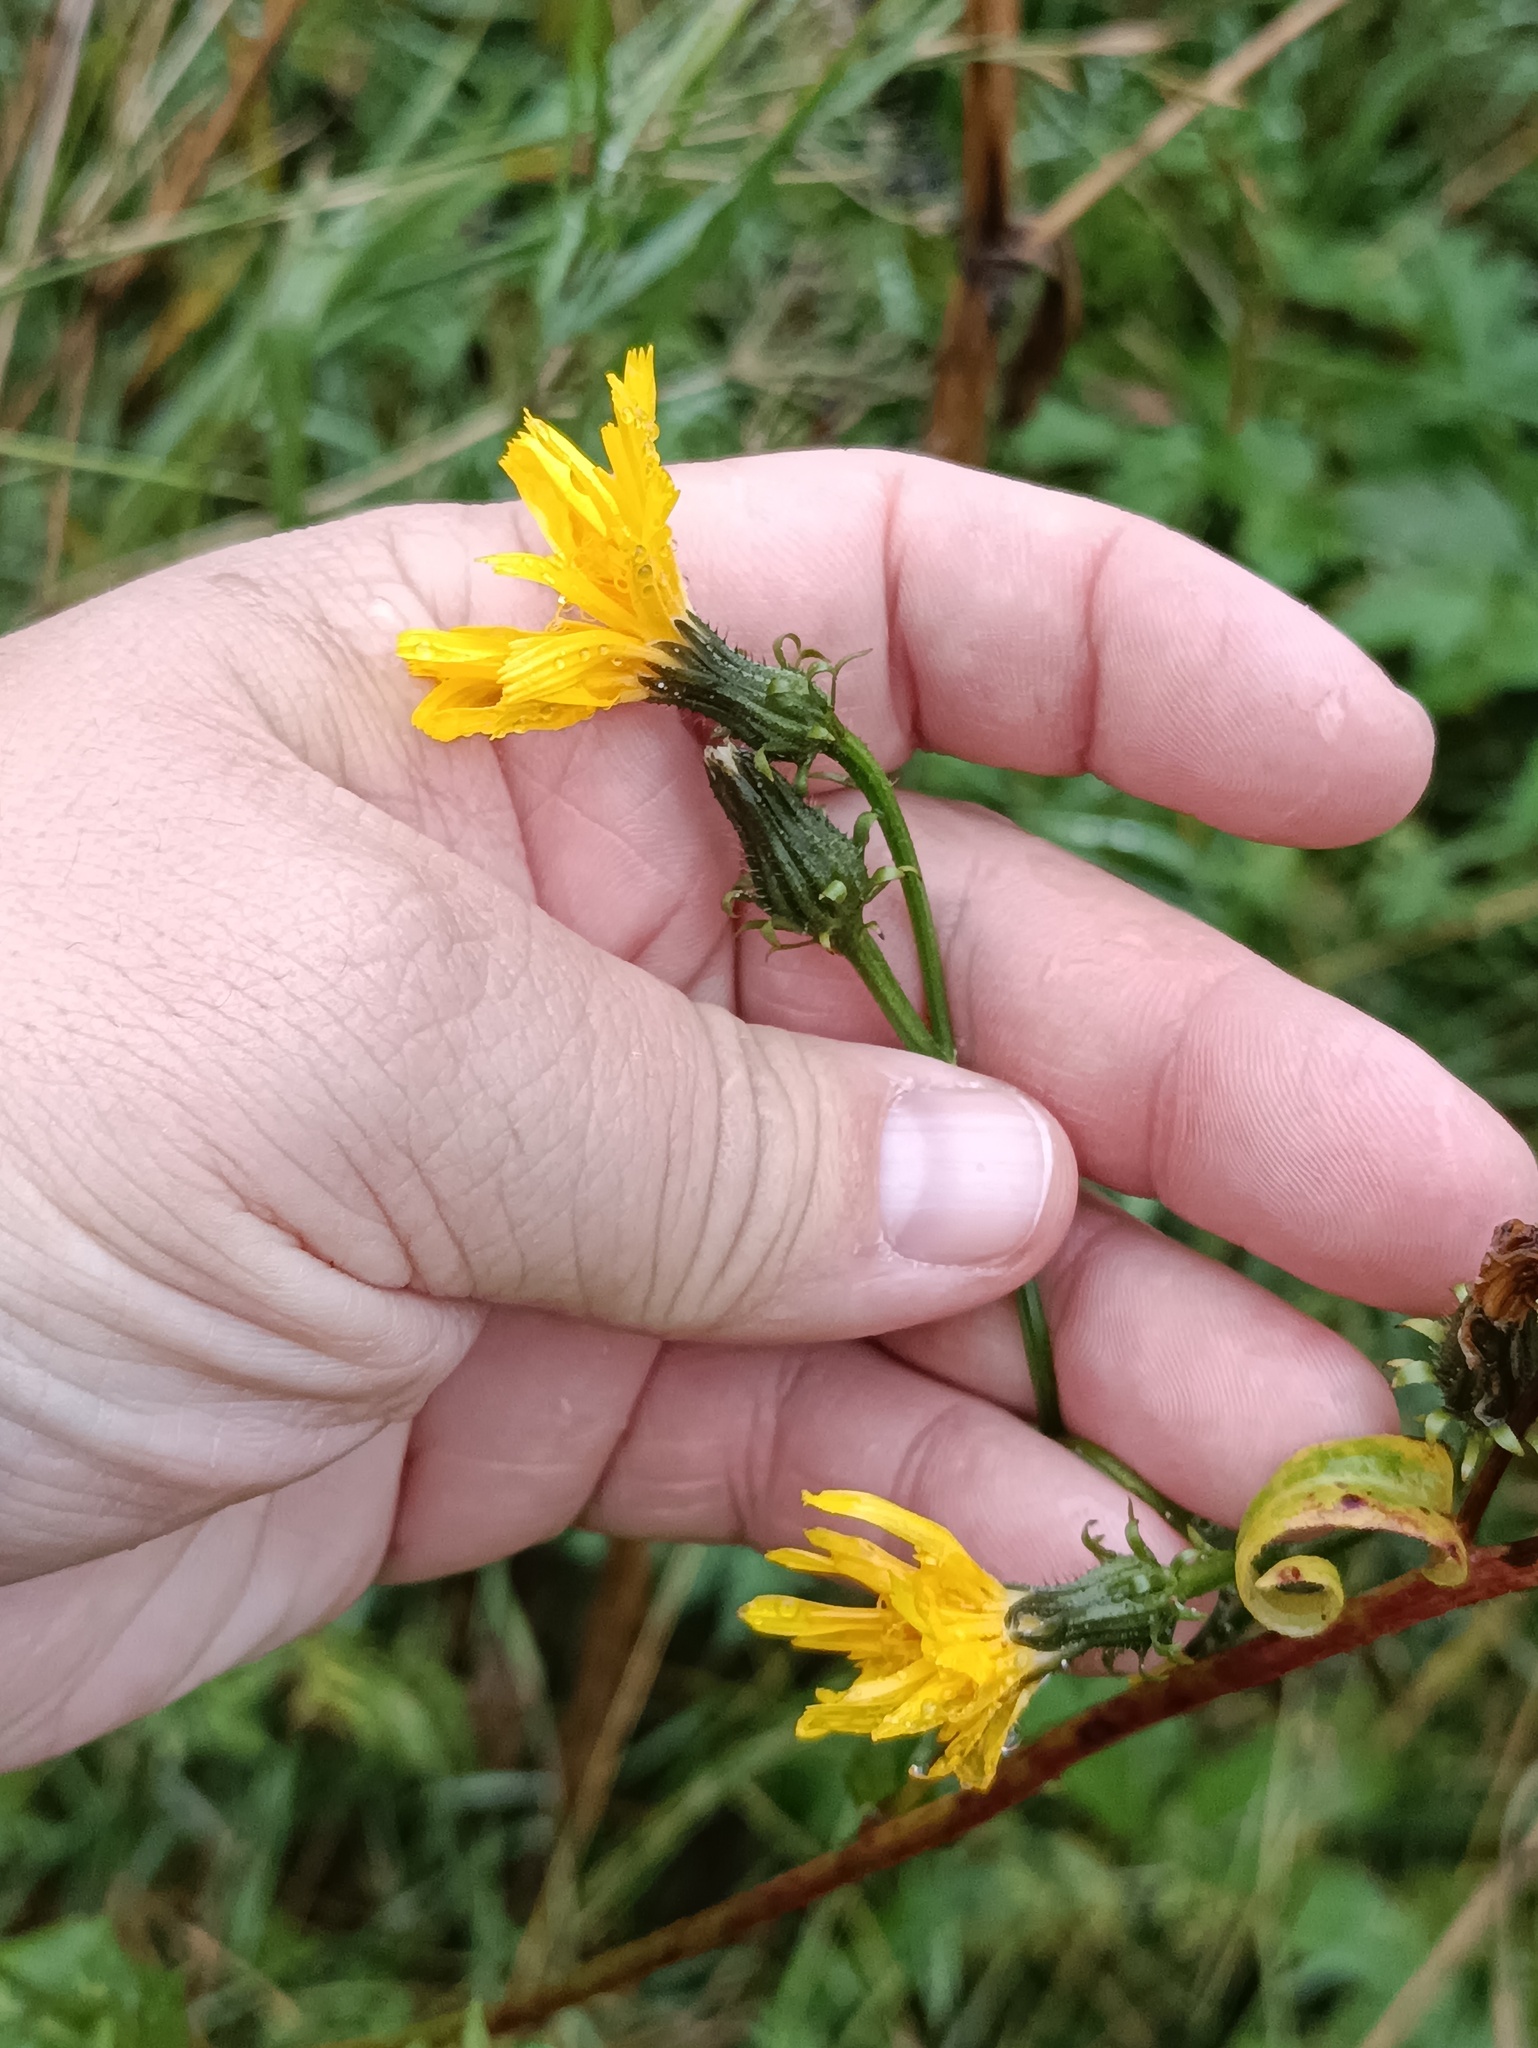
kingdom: Plantae
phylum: Tracheophyta
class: Magnoliopsida
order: Asterales
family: Asteraceae
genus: Picris
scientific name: Picris hieracioides
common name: Hawkweed oxtongue
